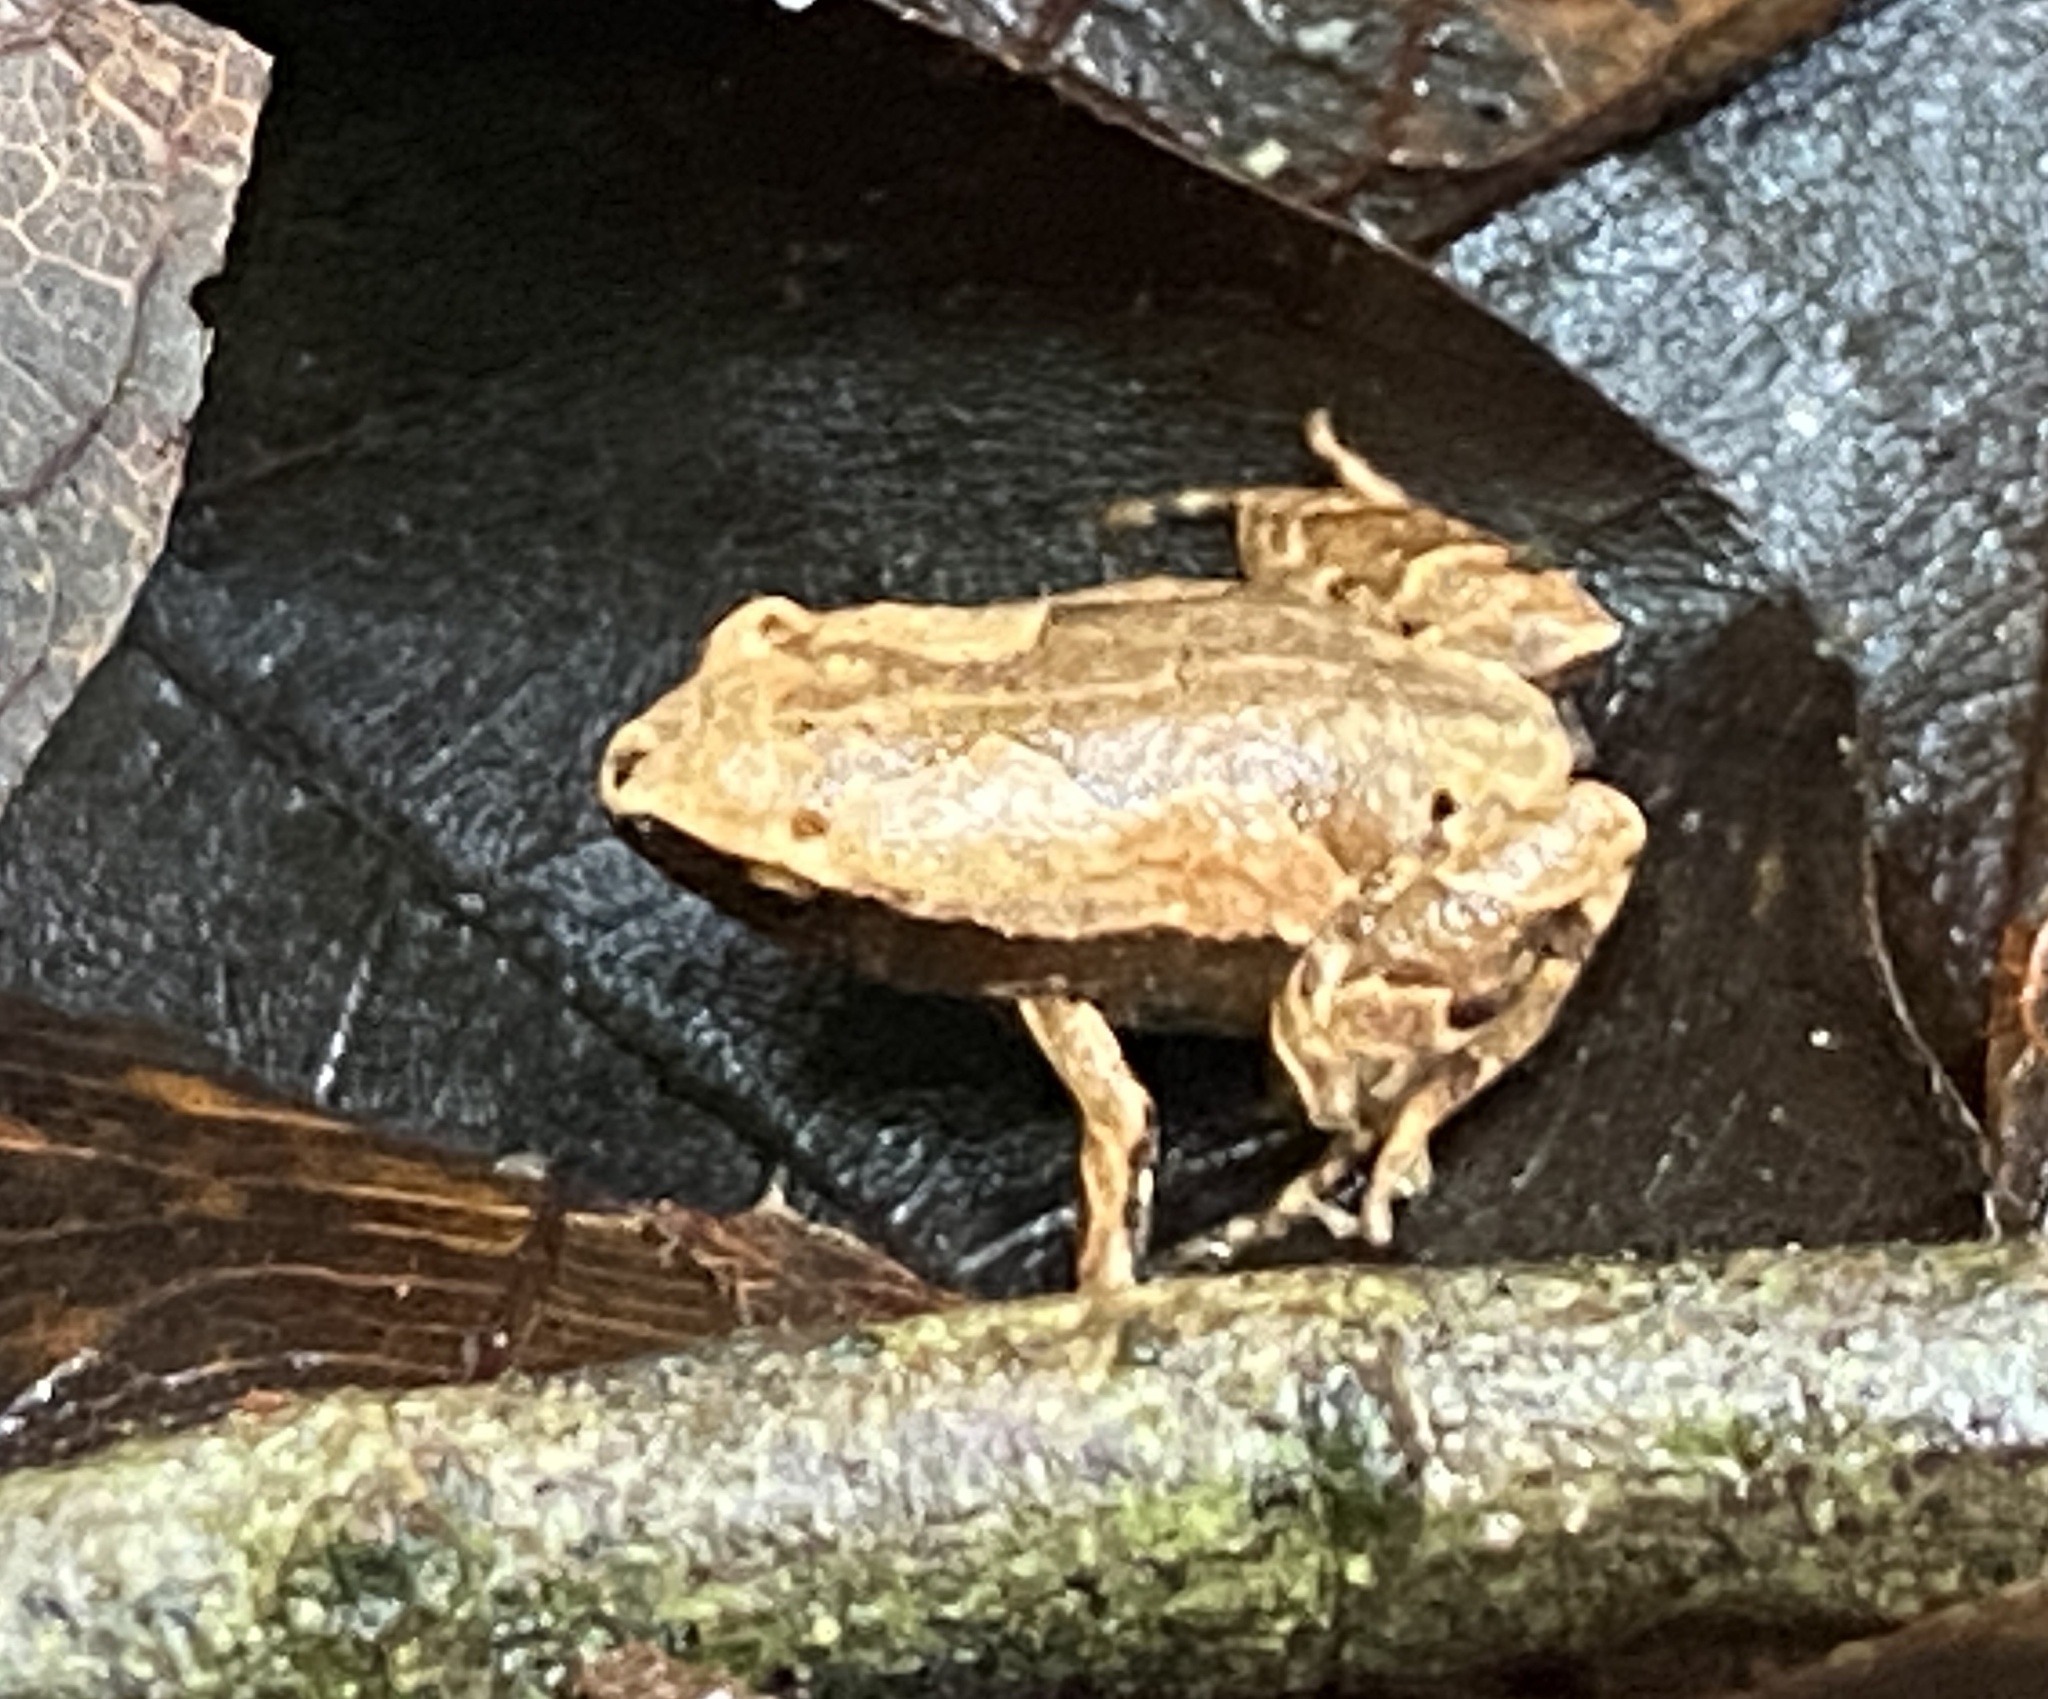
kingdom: Animalia
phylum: Chordata
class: Amphibia
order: Anura
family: Microhylidae
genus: Hamptophryne
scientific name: Hamptophryne boliviana
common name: Bolivian bleating frog
